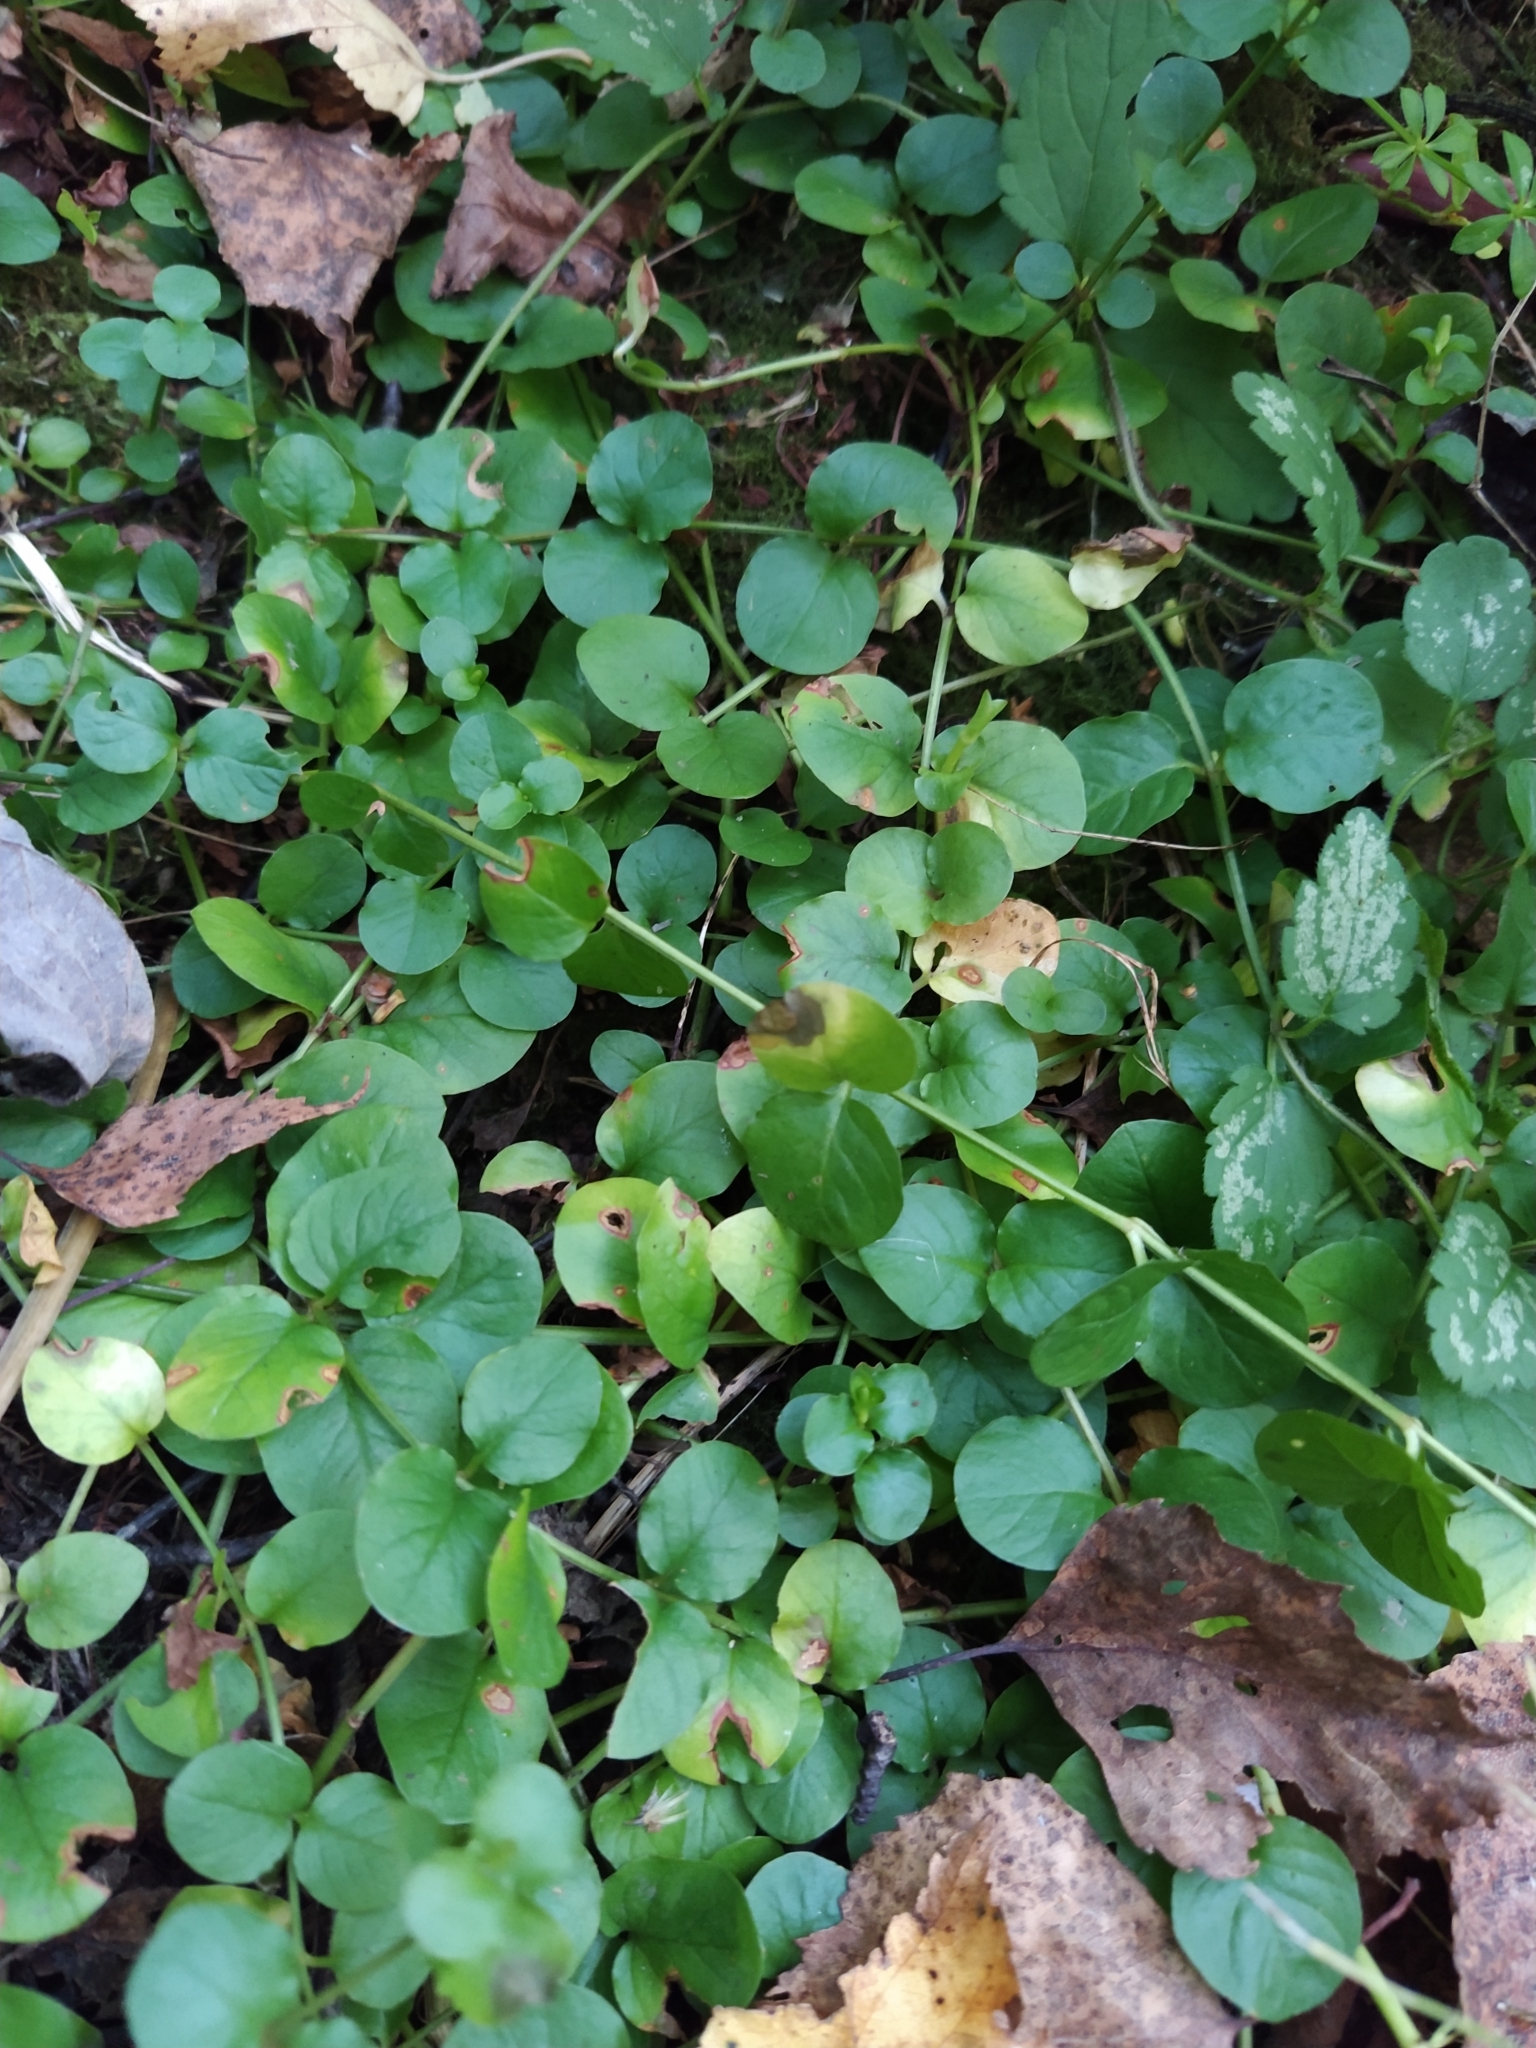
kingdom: Plantae
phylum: Tracheophyta
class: Magnoliopsida
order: Ericales
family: Primulaceae
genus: Lysimachia
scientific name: Lysimachia nummularia
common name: Moneywort
